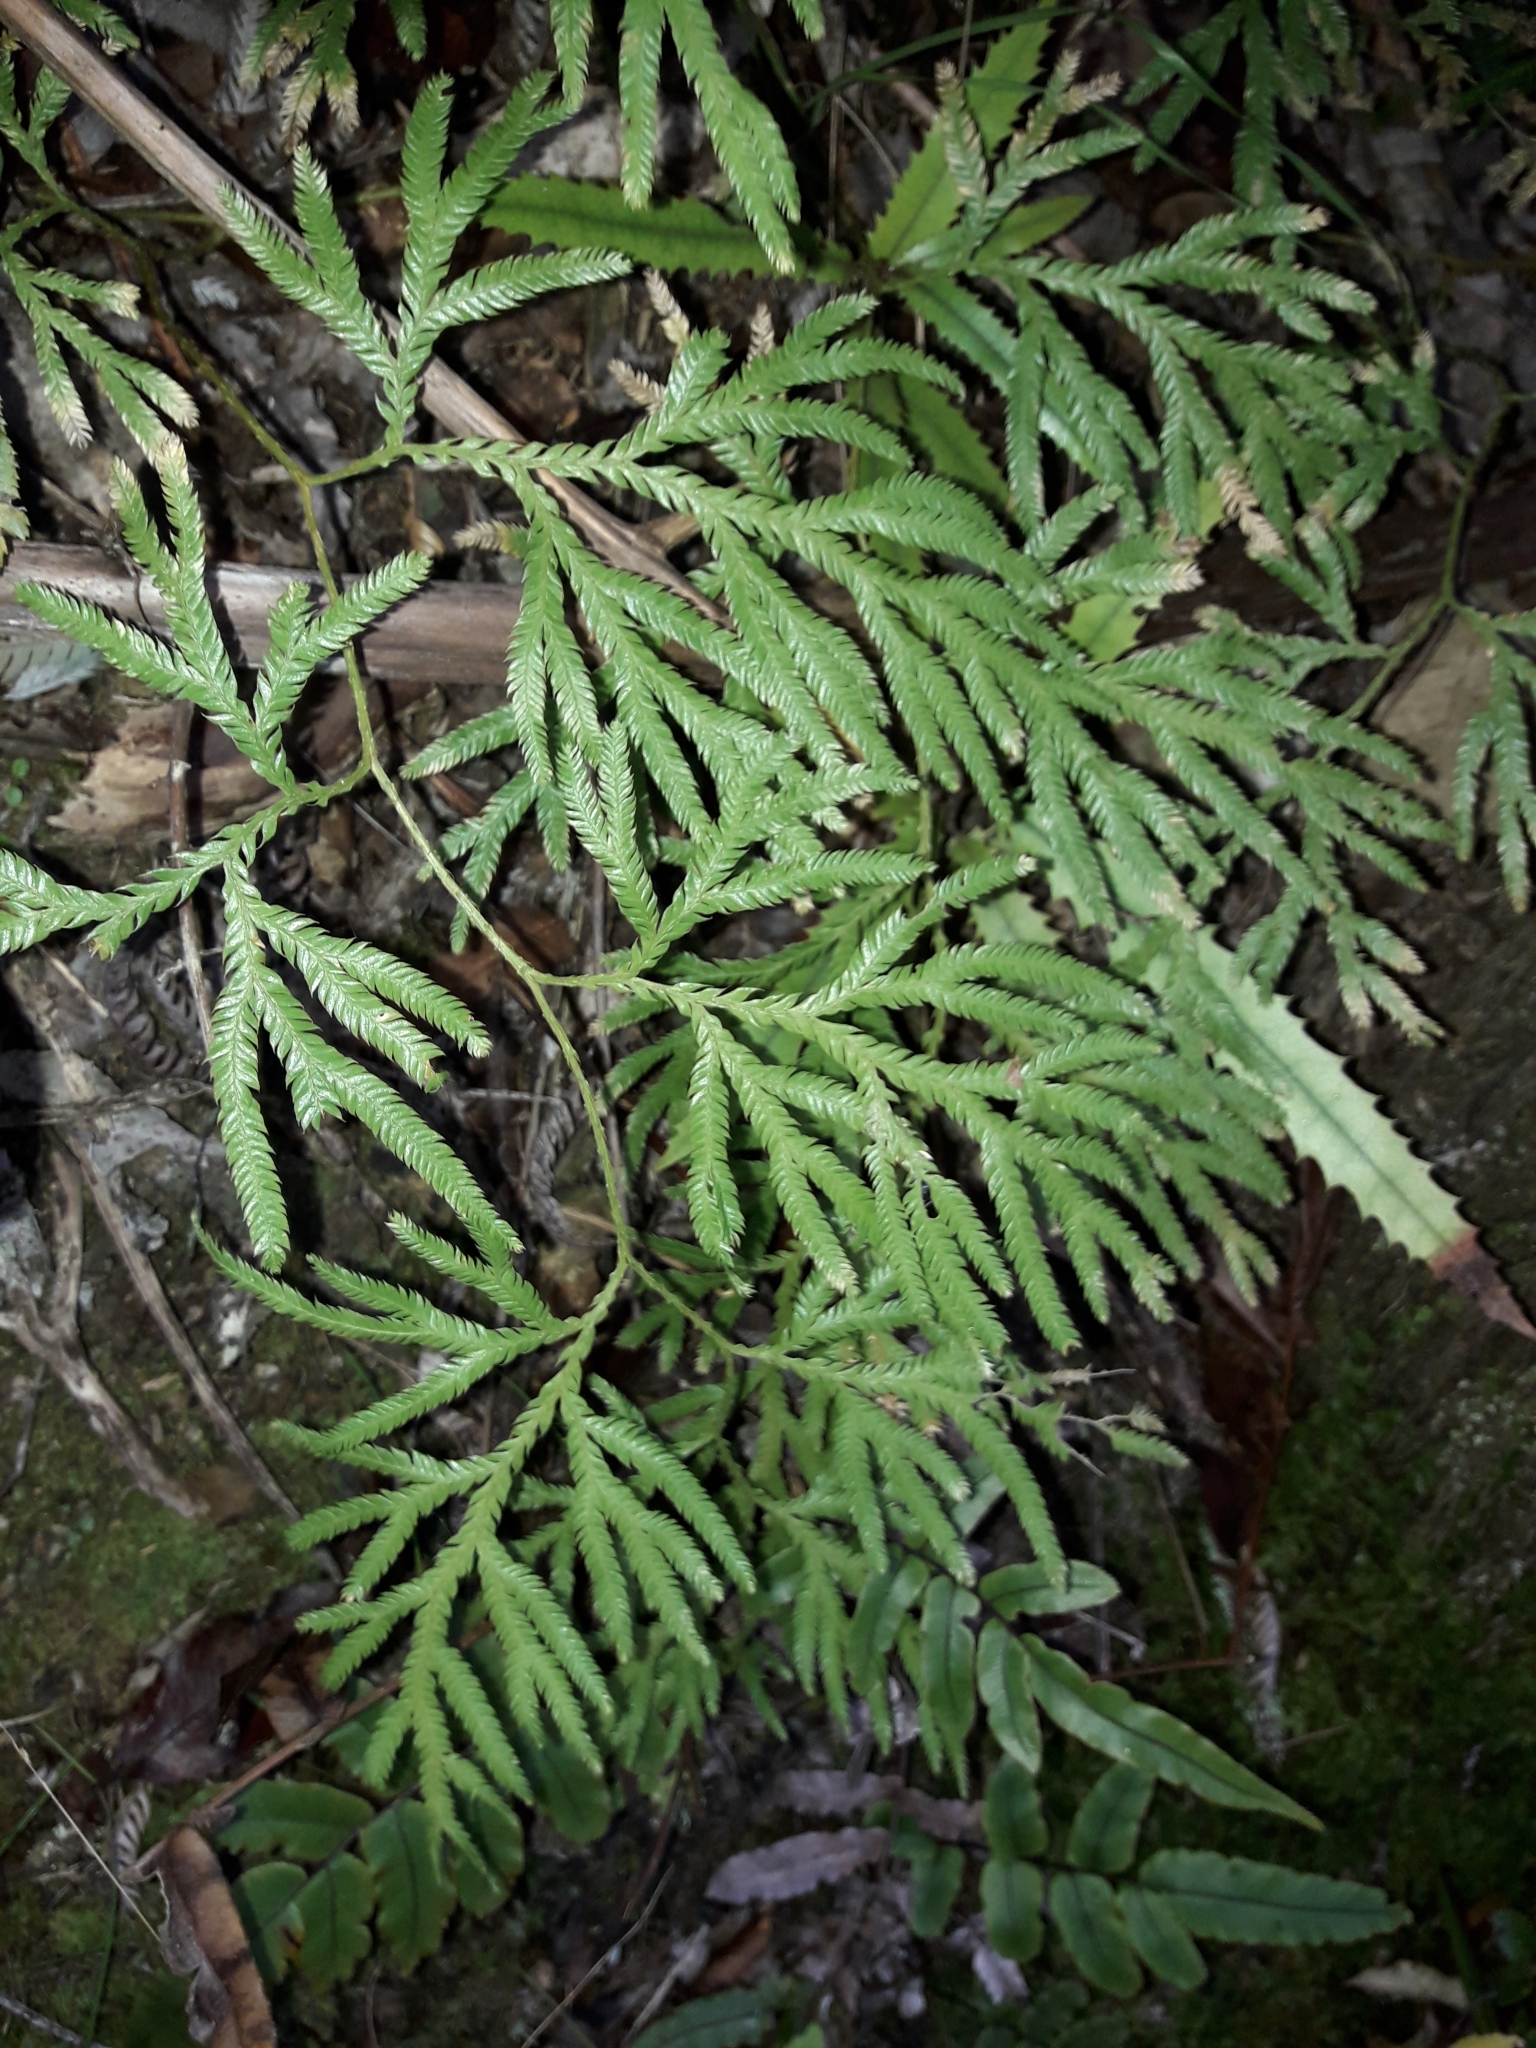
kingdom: Plantae
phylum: Tracheophyta
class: Lycopodiopsida
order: Lycopodiales
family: Lycopodiaceae
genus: Lycopodium
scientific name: Lycopodium volubile
